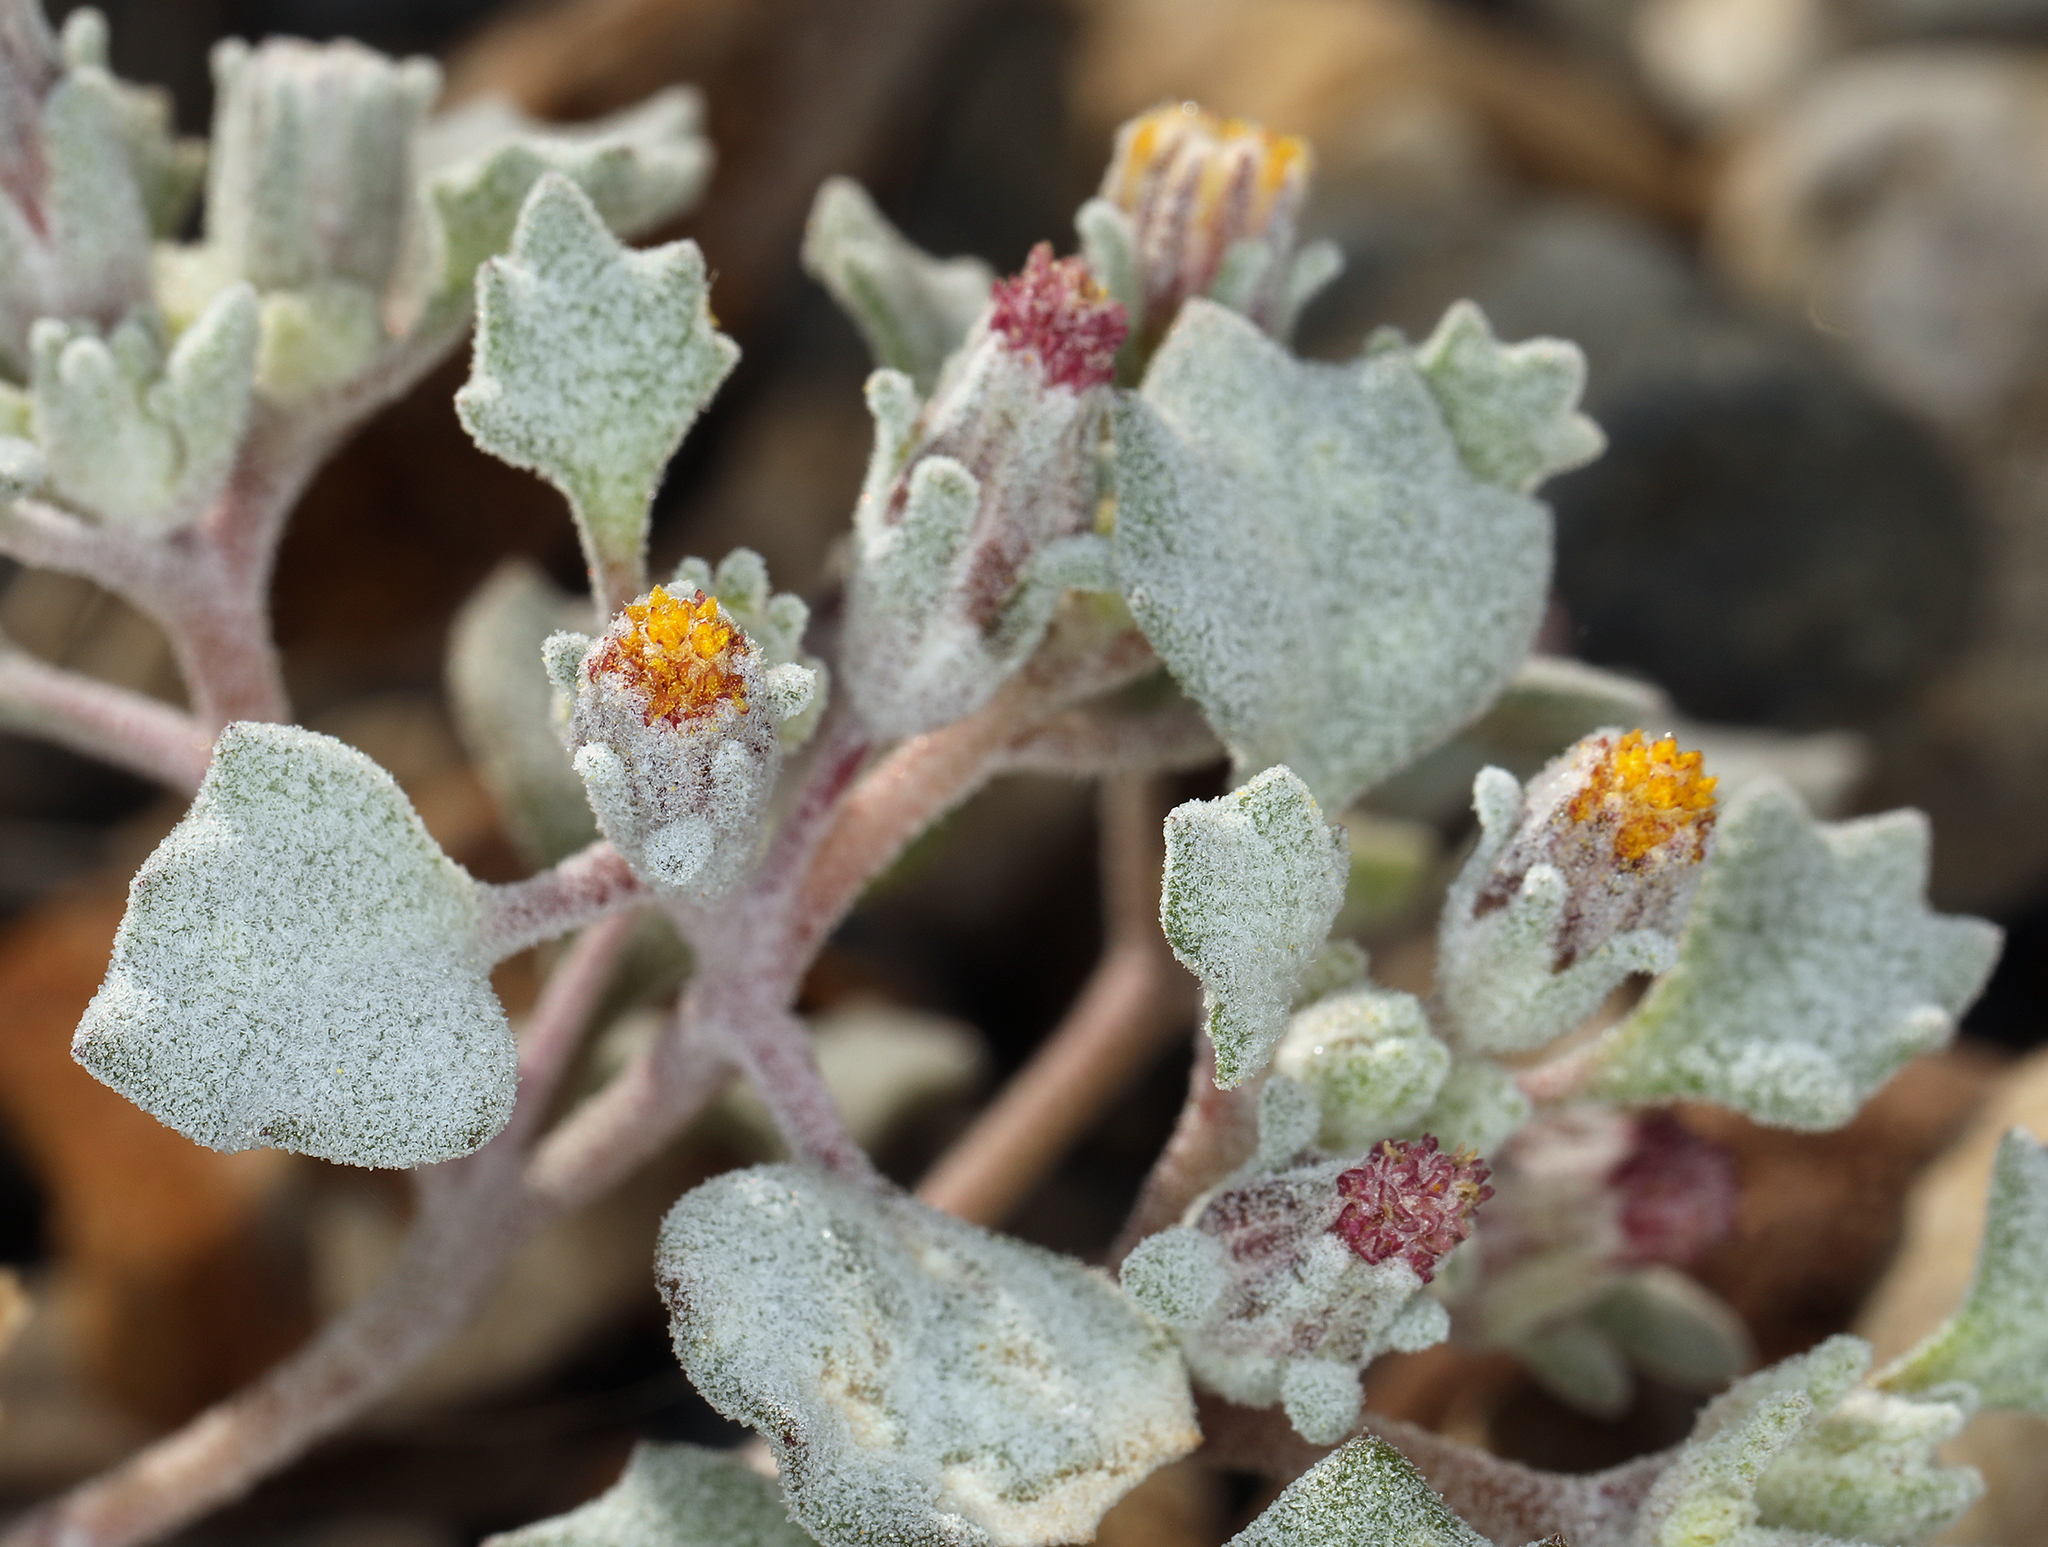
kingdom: Plantae
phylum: Tracheophyta
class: Magnoliopsida
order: Asterales
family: Asteraceae
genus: Psathyrotes
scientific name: Psathyrotes annua
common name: Mealy rosettes
